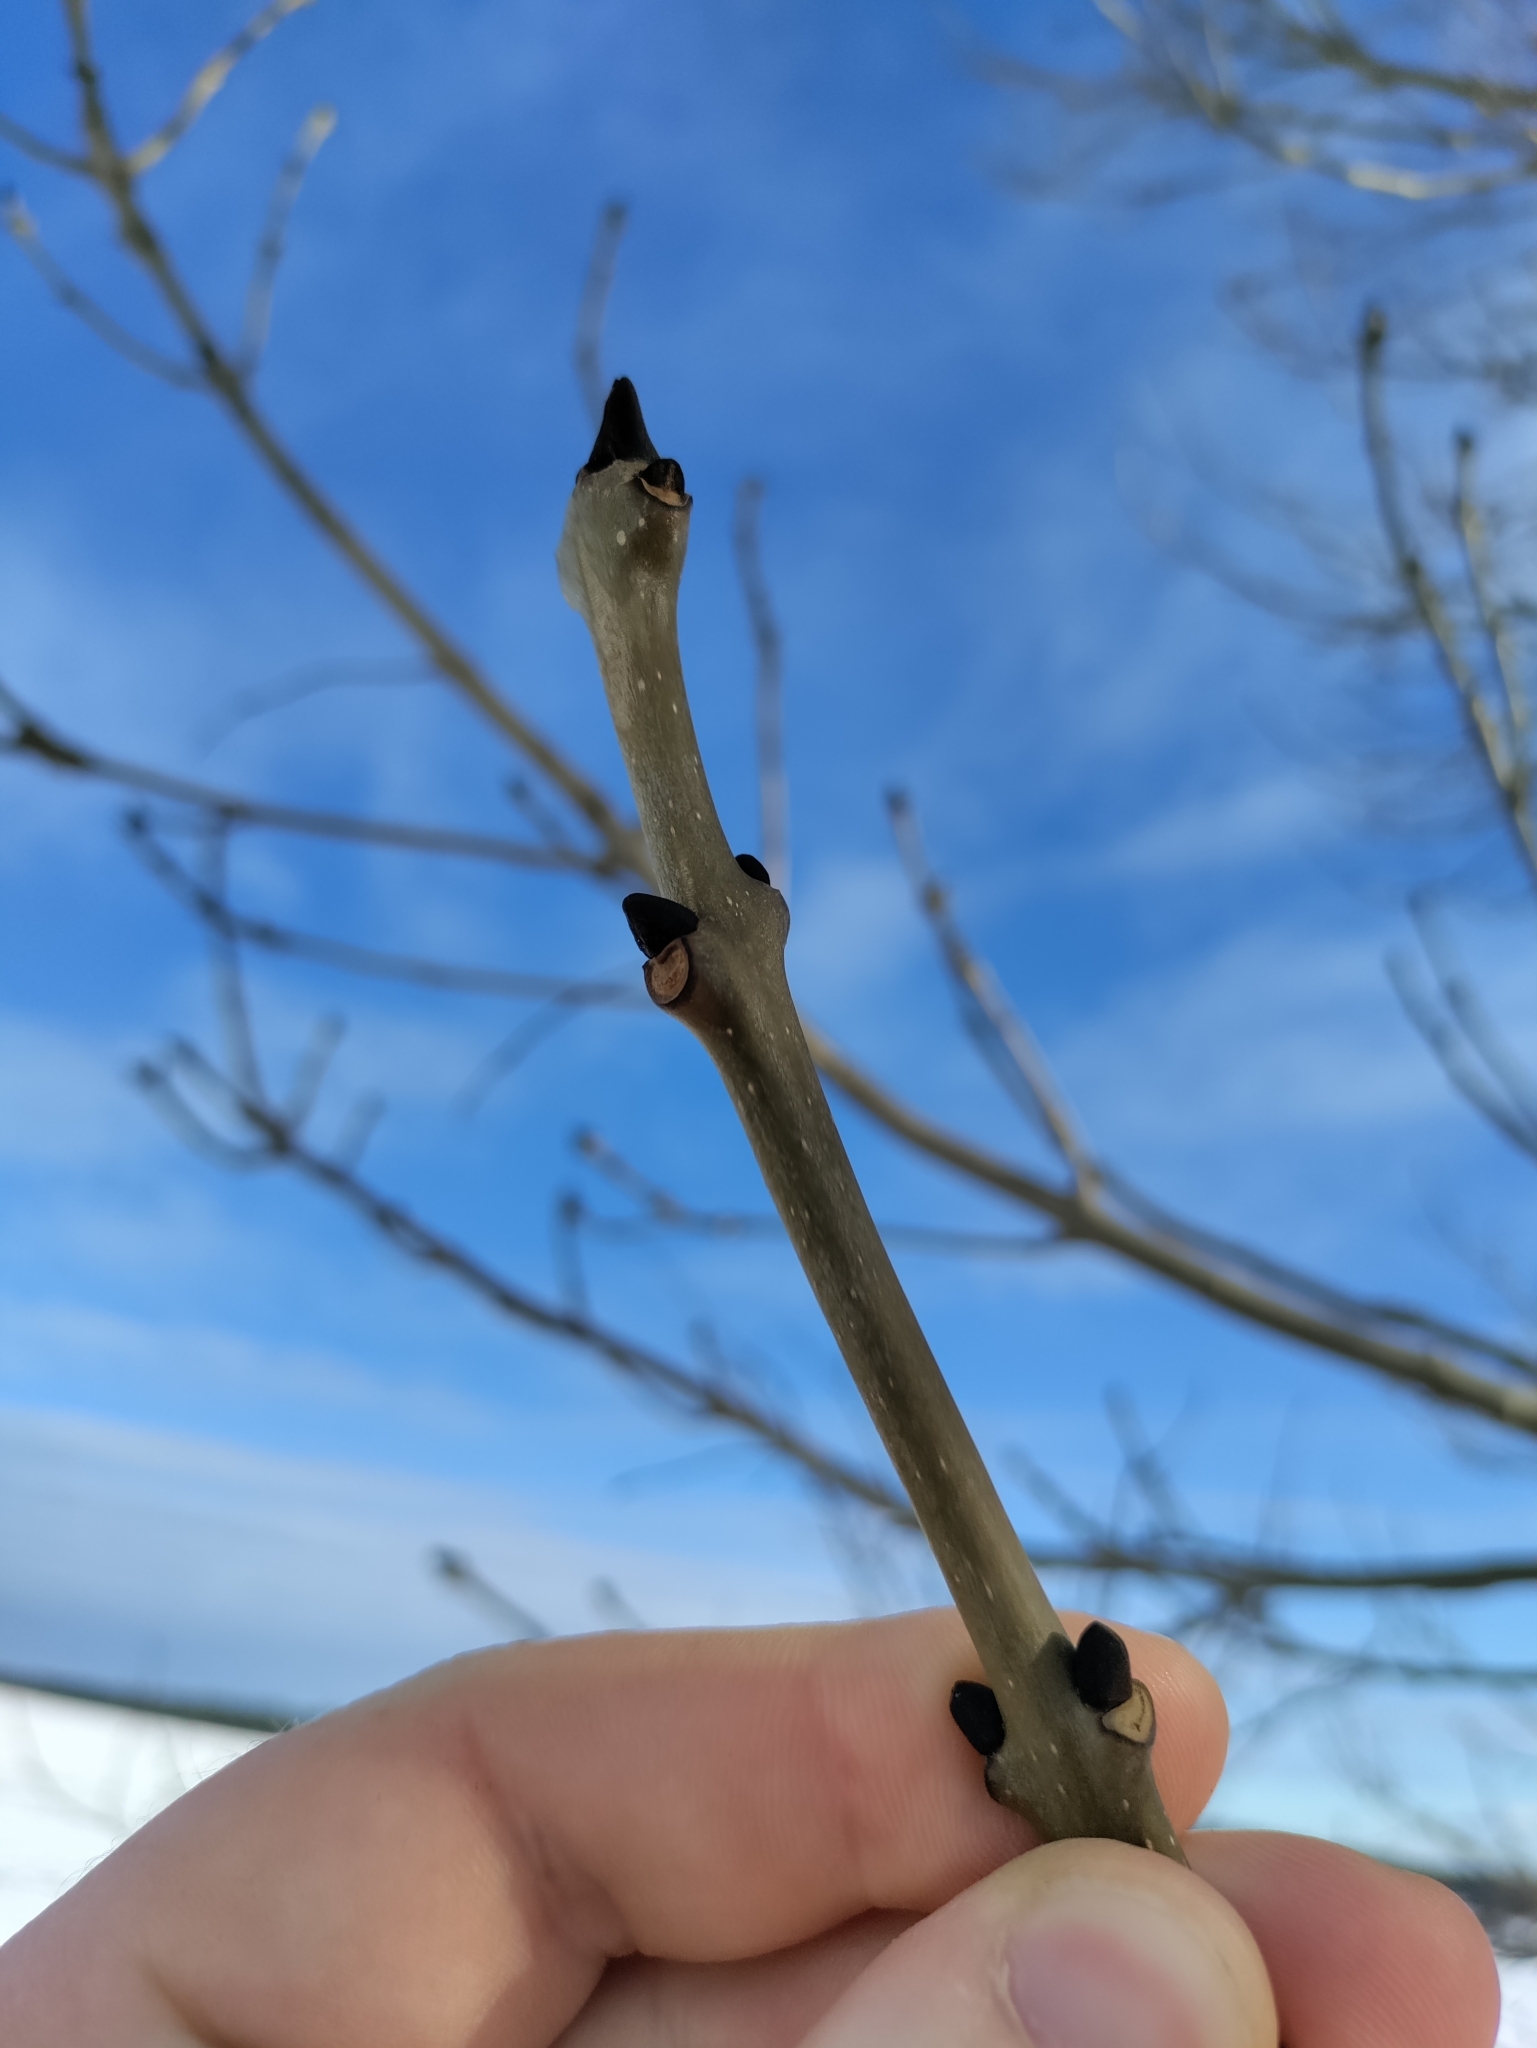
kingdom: Plantae
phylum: Tracheophyta
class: Magnoliopsida
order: Lamiales
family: Oleaceae
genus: Fraxinus
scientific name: Fraxinus excelsior
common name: European ash
